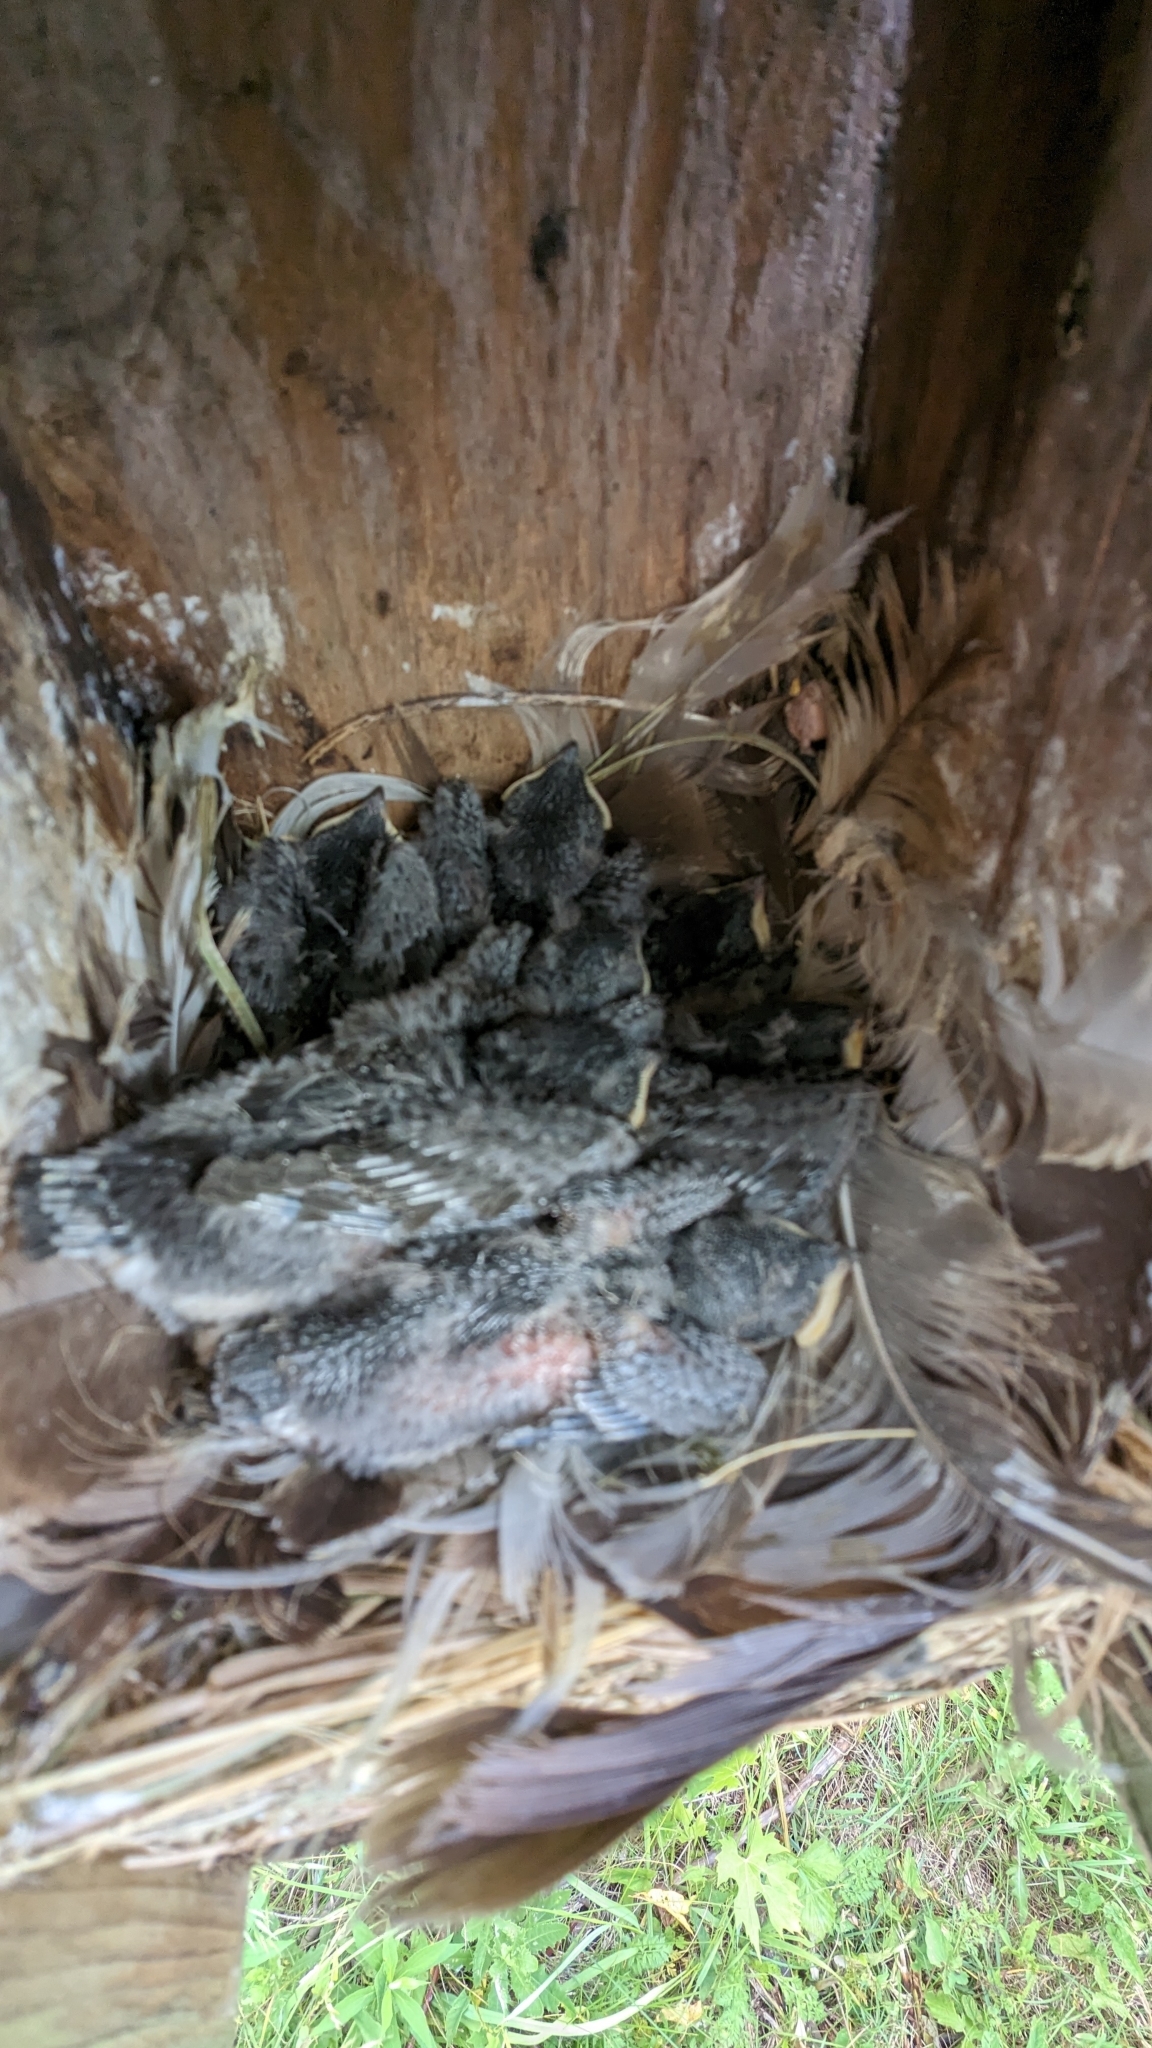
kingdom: Animalia
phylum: Chordata
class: Aves
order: Passeriformes
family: Hirundinidae
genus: Tachycineta
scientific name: Tachycineta bicolor
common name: Tree swallow
